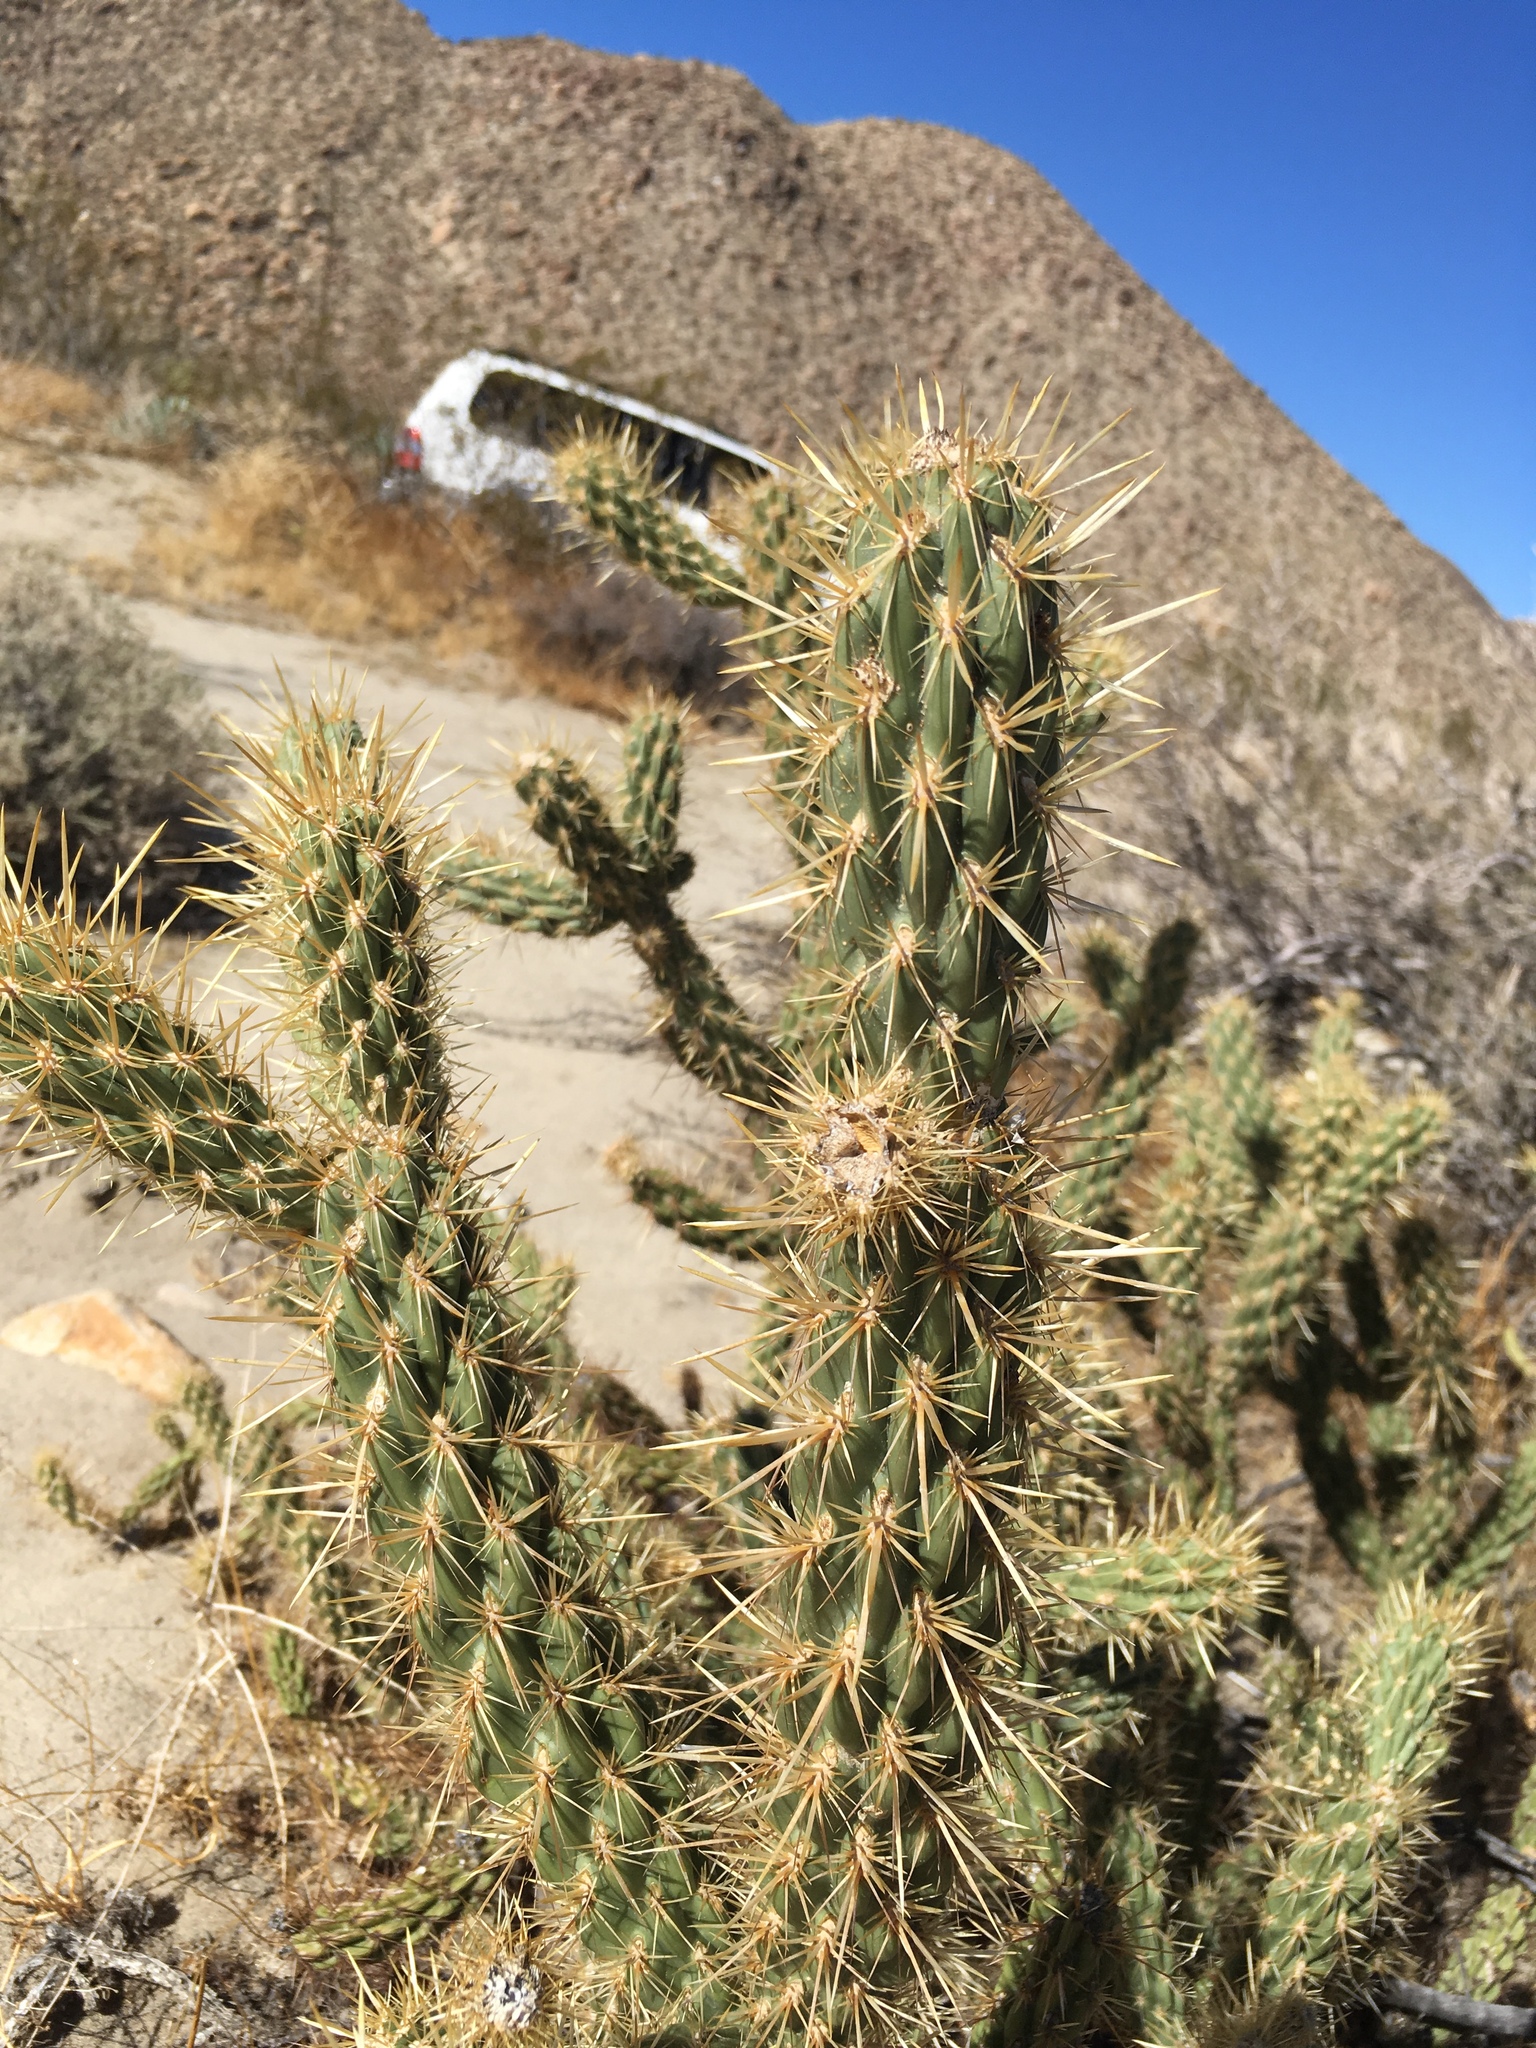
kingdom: Plantae
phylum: Tracheophyta
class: Magnoliopsida
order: Caryophyllales
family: Cactaceae
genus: Cylindropuntia
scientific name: Cylindropuntia ganderi
